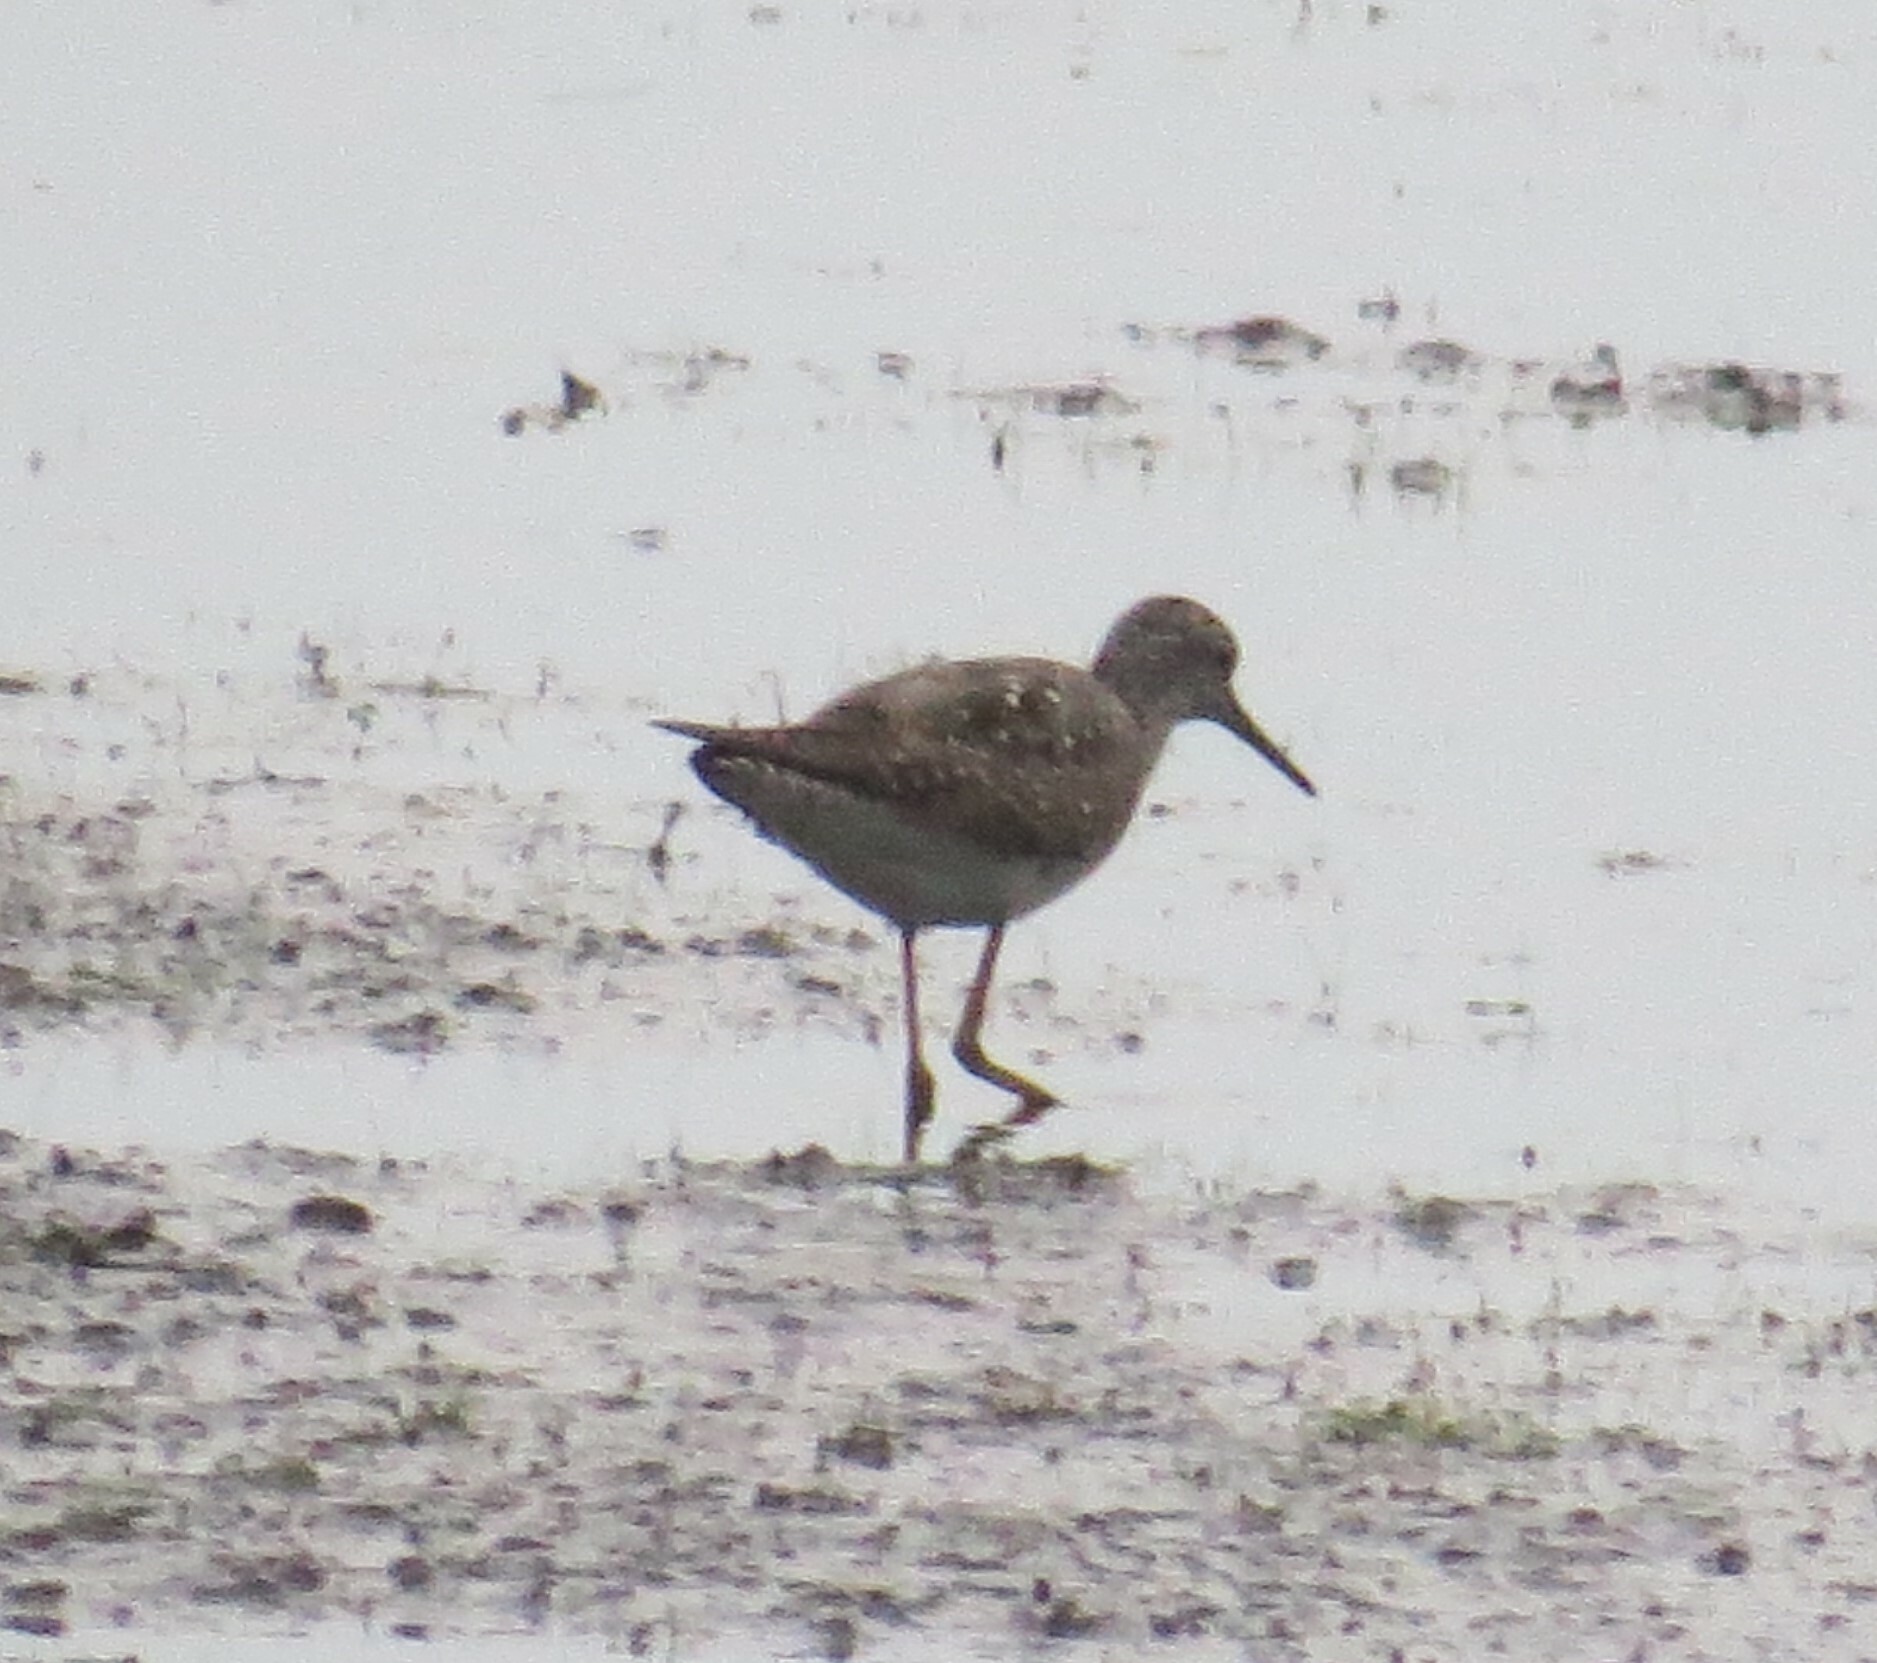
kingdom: Animalia
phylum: Chordata
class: Aves
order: Charadriiformes
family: Scolopacidae
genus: Tringa
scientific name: Tringa flavipes
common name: Lesser yellowlegs
